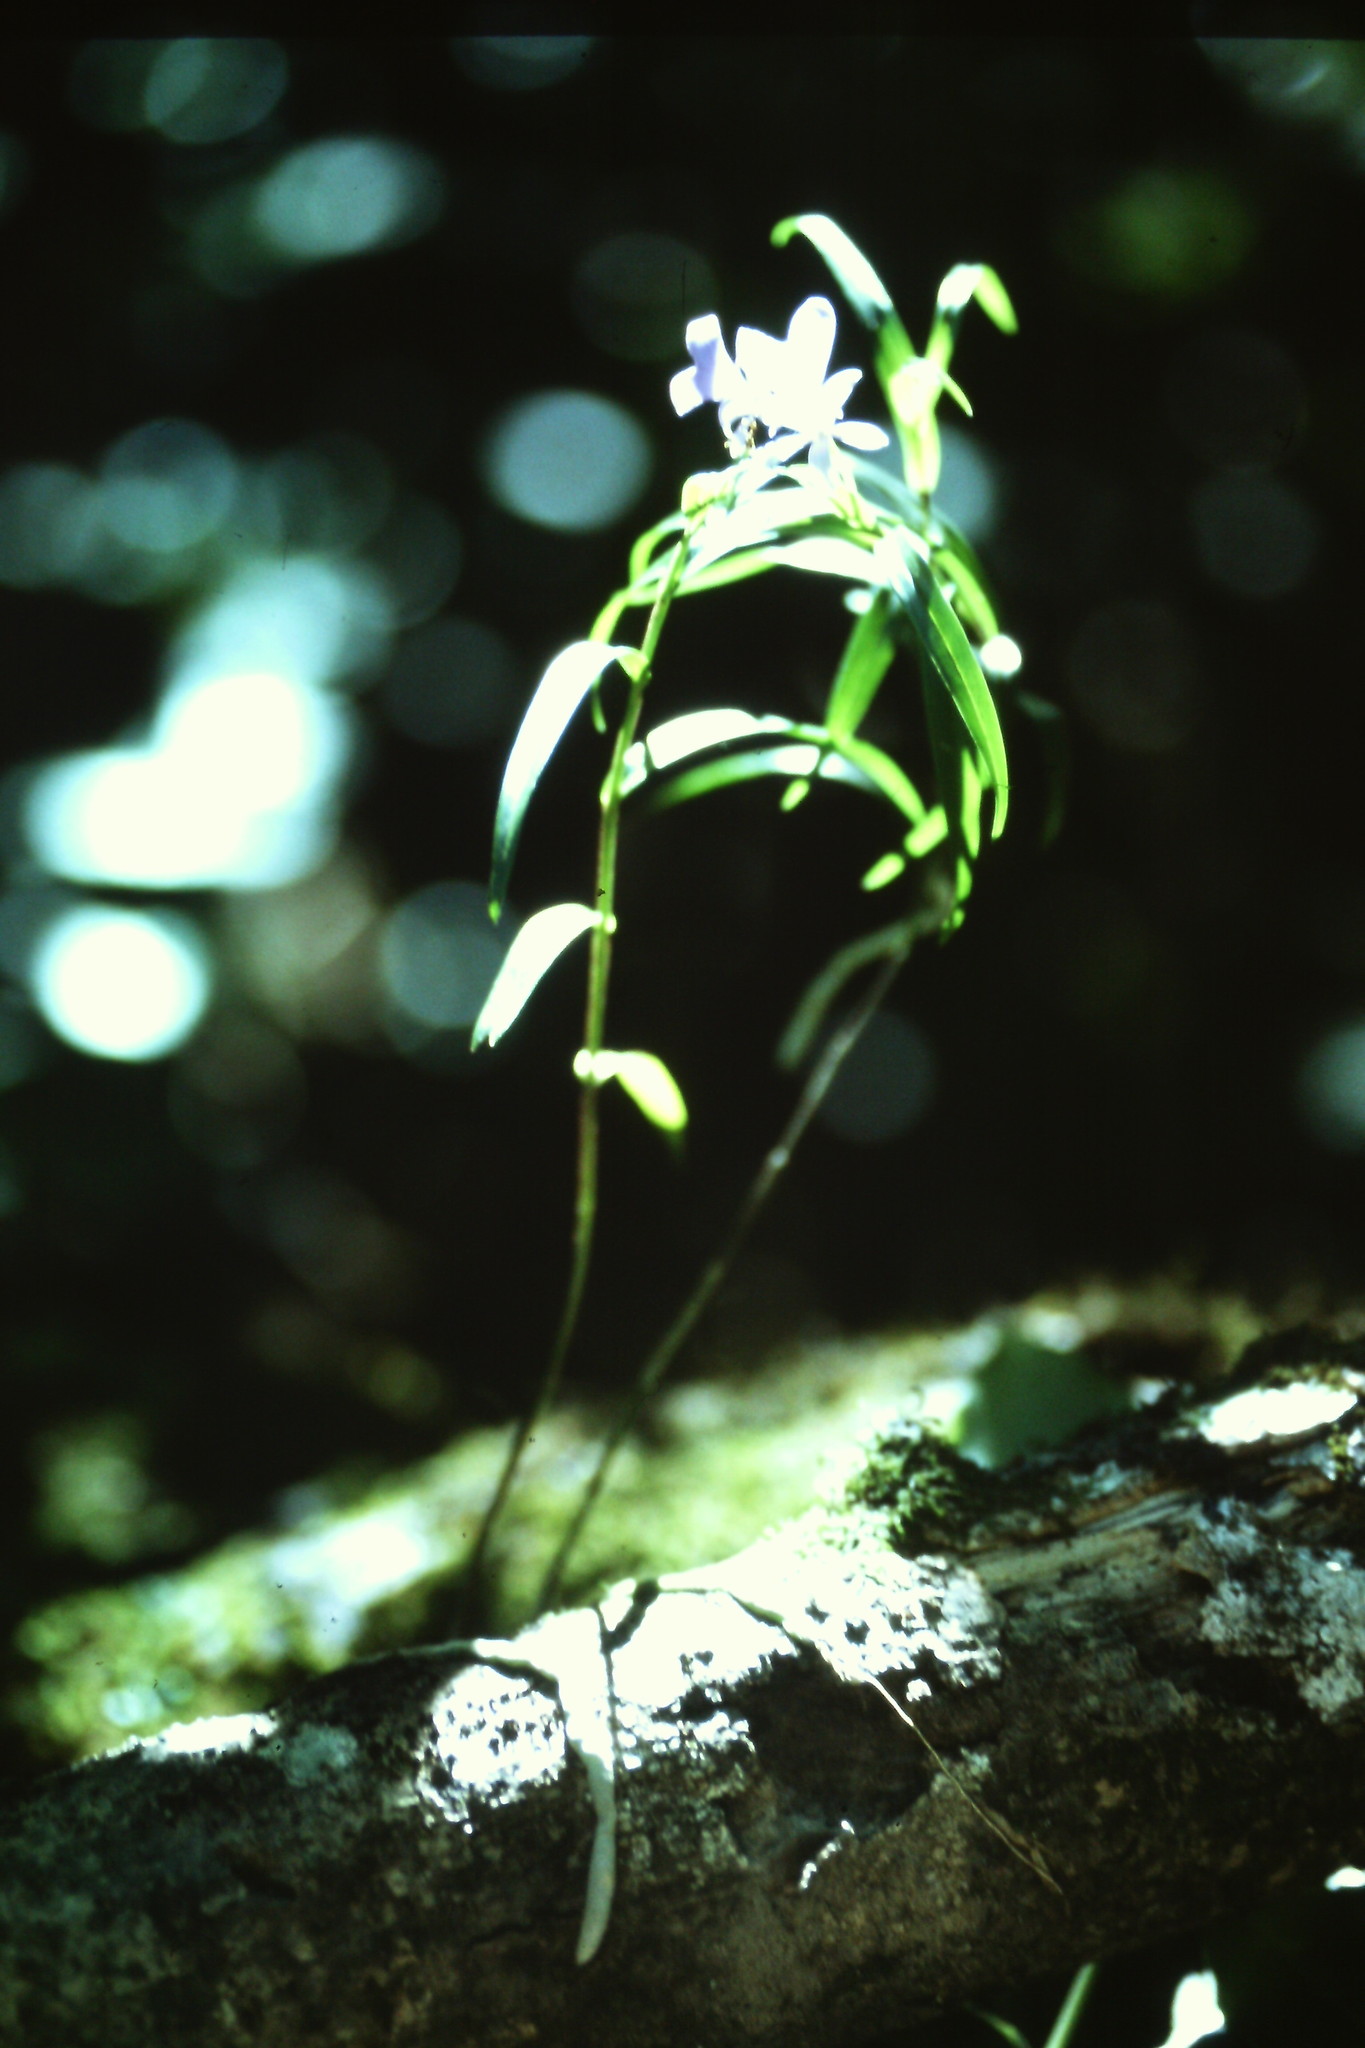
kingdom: Plantae
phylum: Tracheophyta
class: Liliopsida
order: Asparagales
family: Orchidaceae
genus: Epidendrum
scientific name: Epidendrum centropetalum
